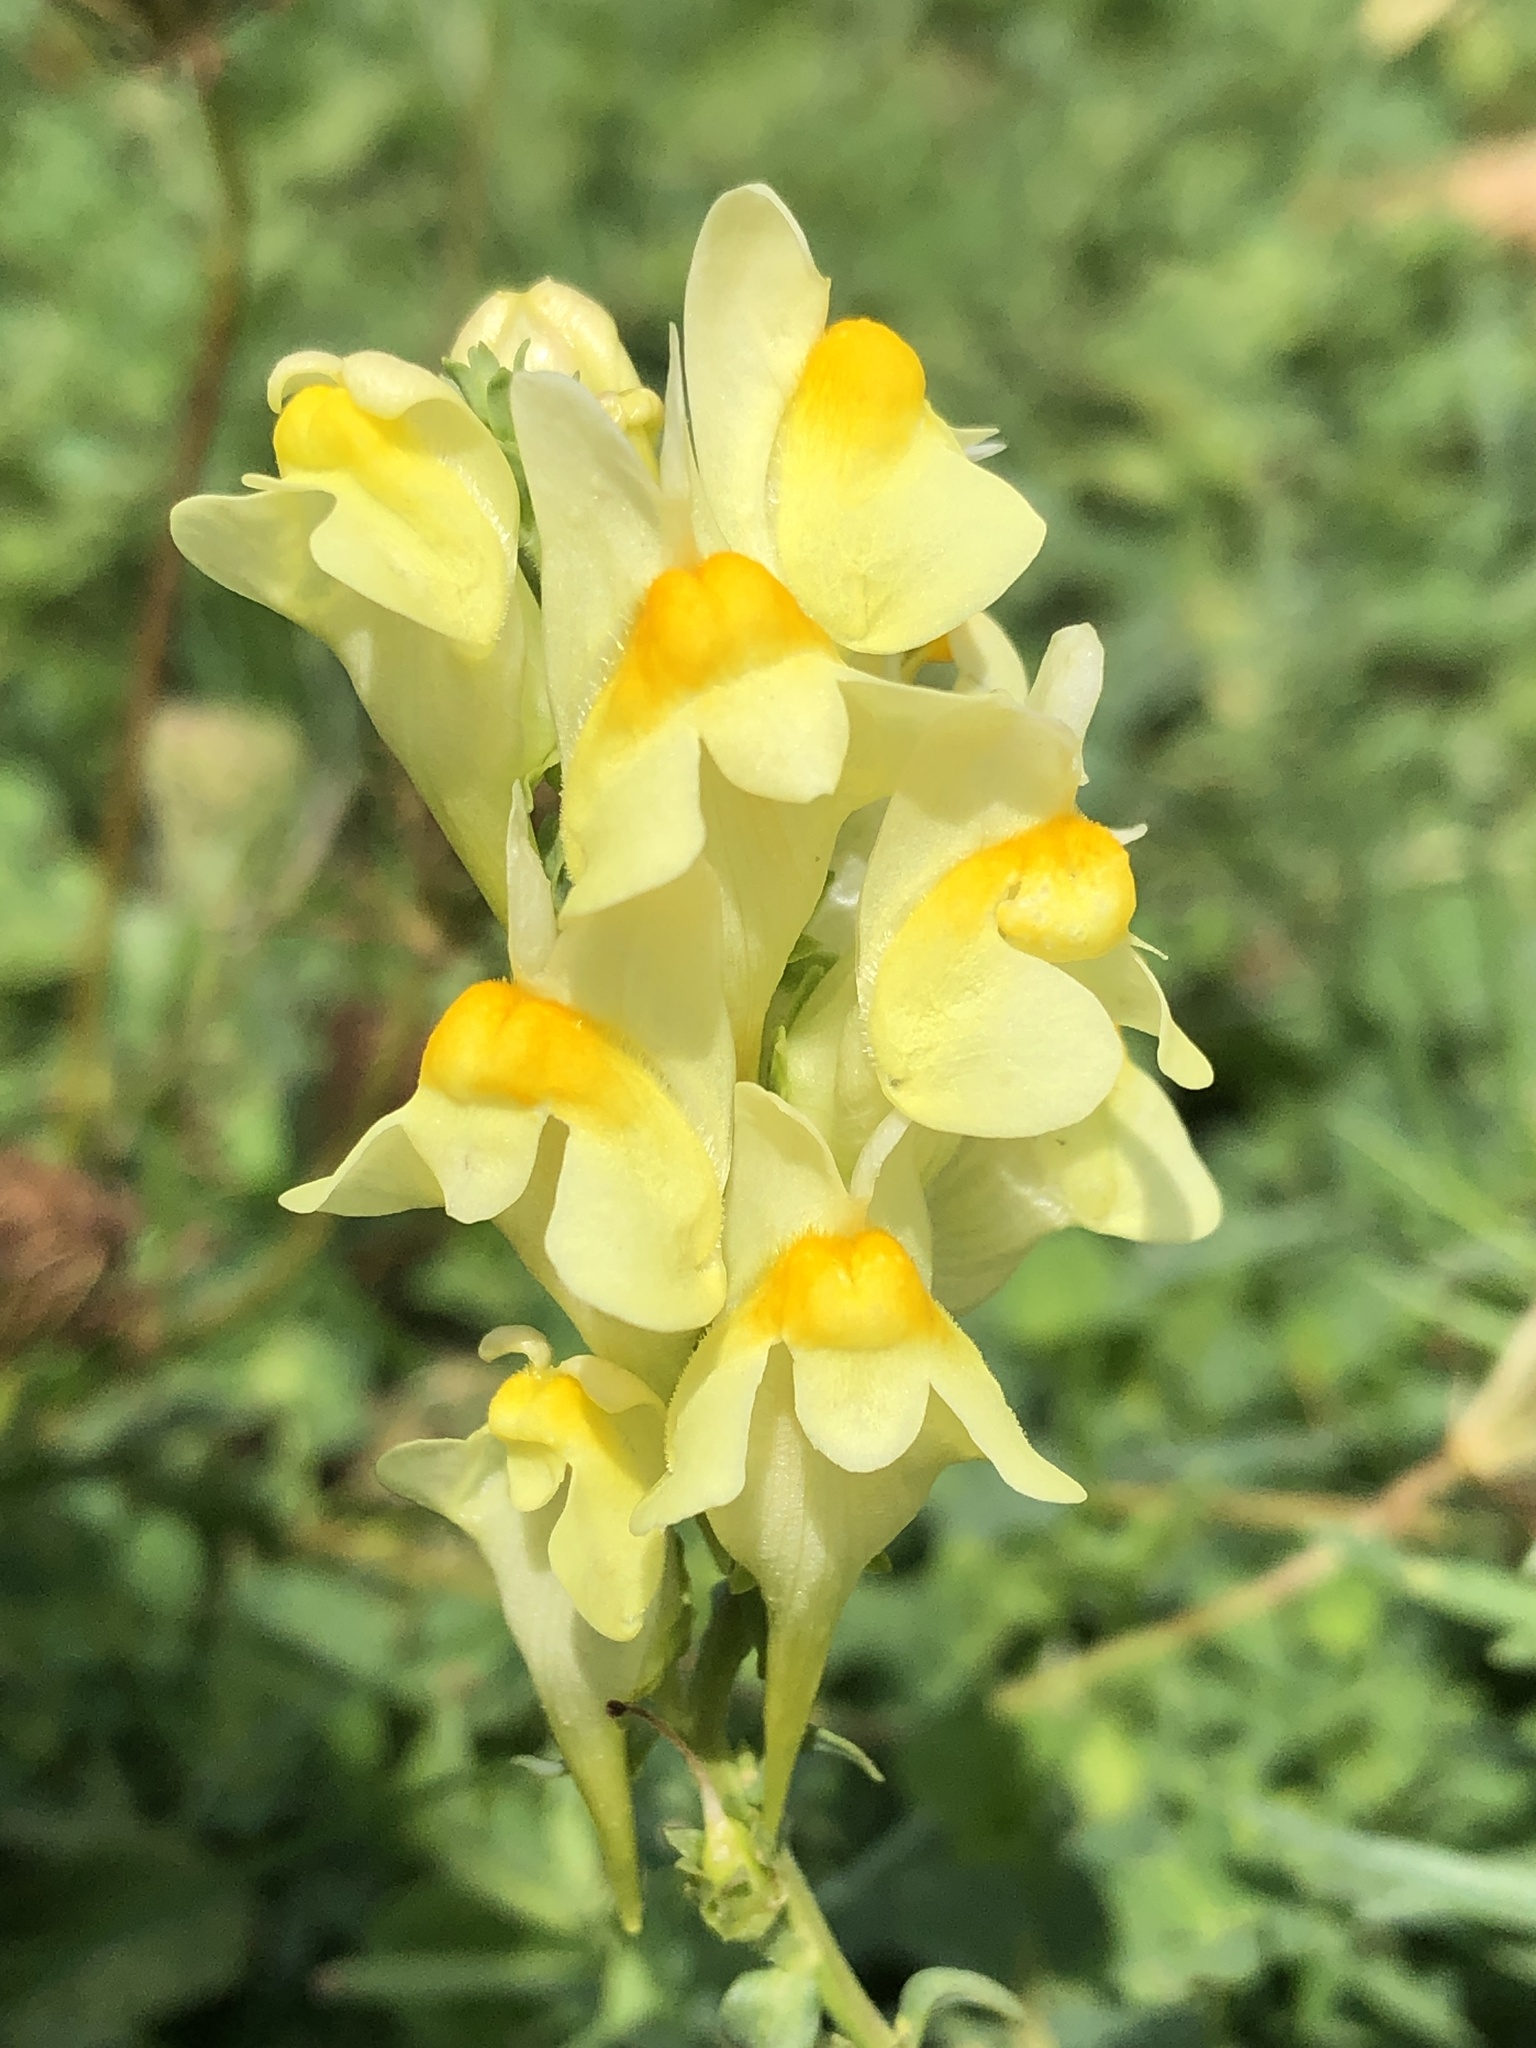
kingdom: Plantae
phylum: Tracheophyta
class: Magnoliopsida
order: Lamiales
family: Plantaginaceae
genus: Linaria
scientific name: Linaria vulgaris
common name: Butter and eggs
